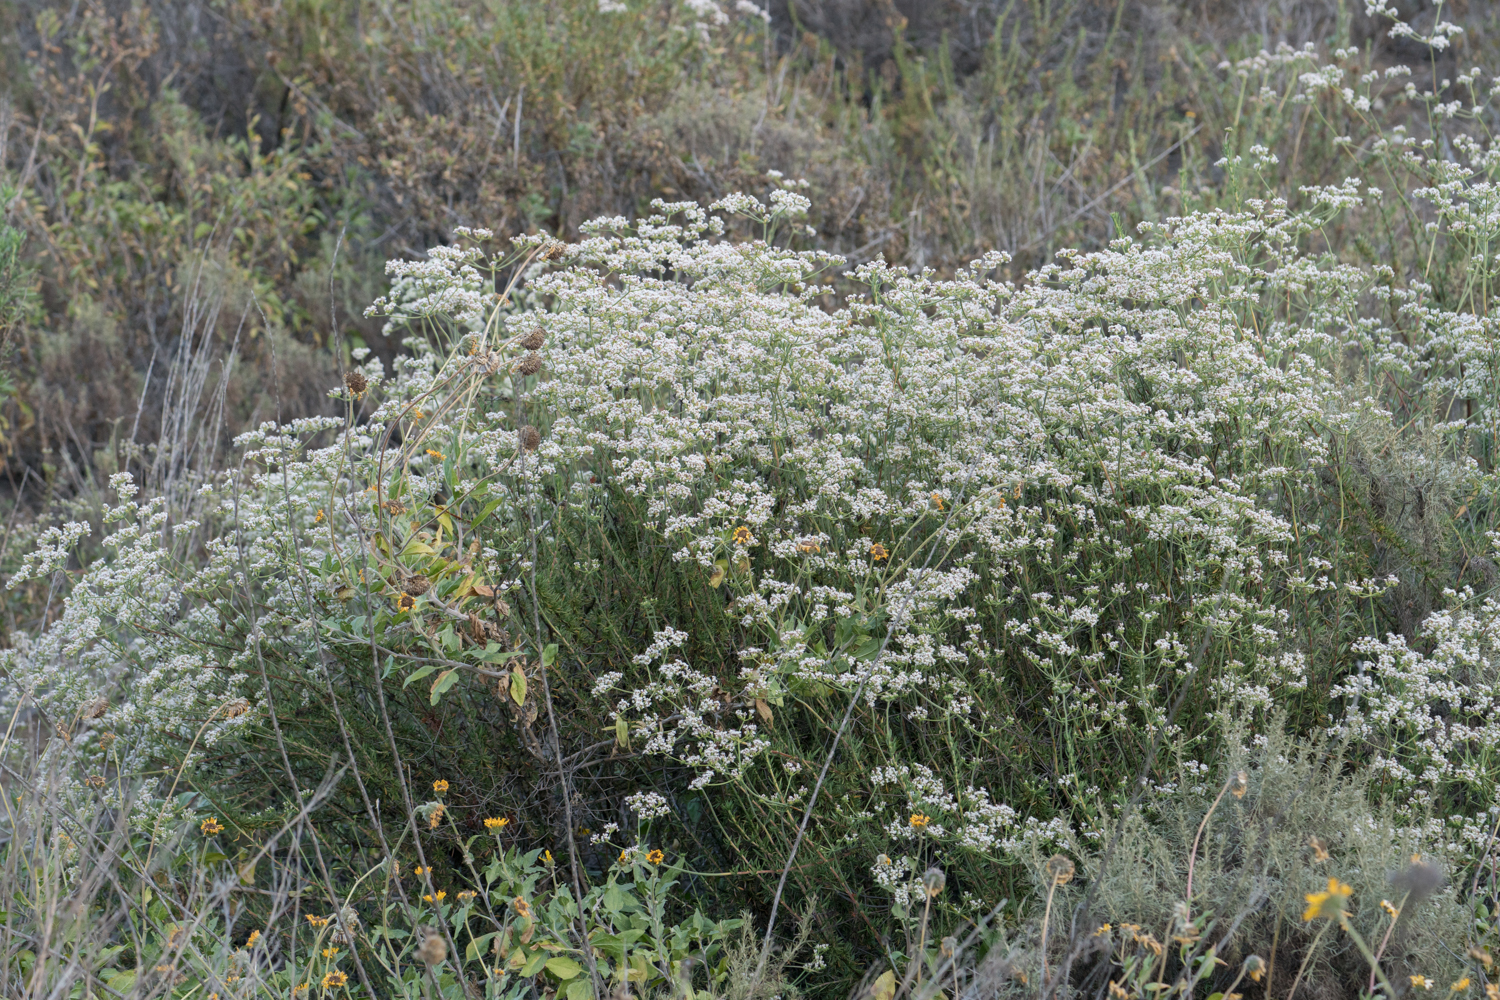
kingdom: Plantae
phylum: Tracheophyta
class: Magnoliopsida
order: Caryophyllales
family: Polygonaceae
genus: Eriogonum
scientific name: Eriogonum fasciculatum
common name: California wild buckwheat
